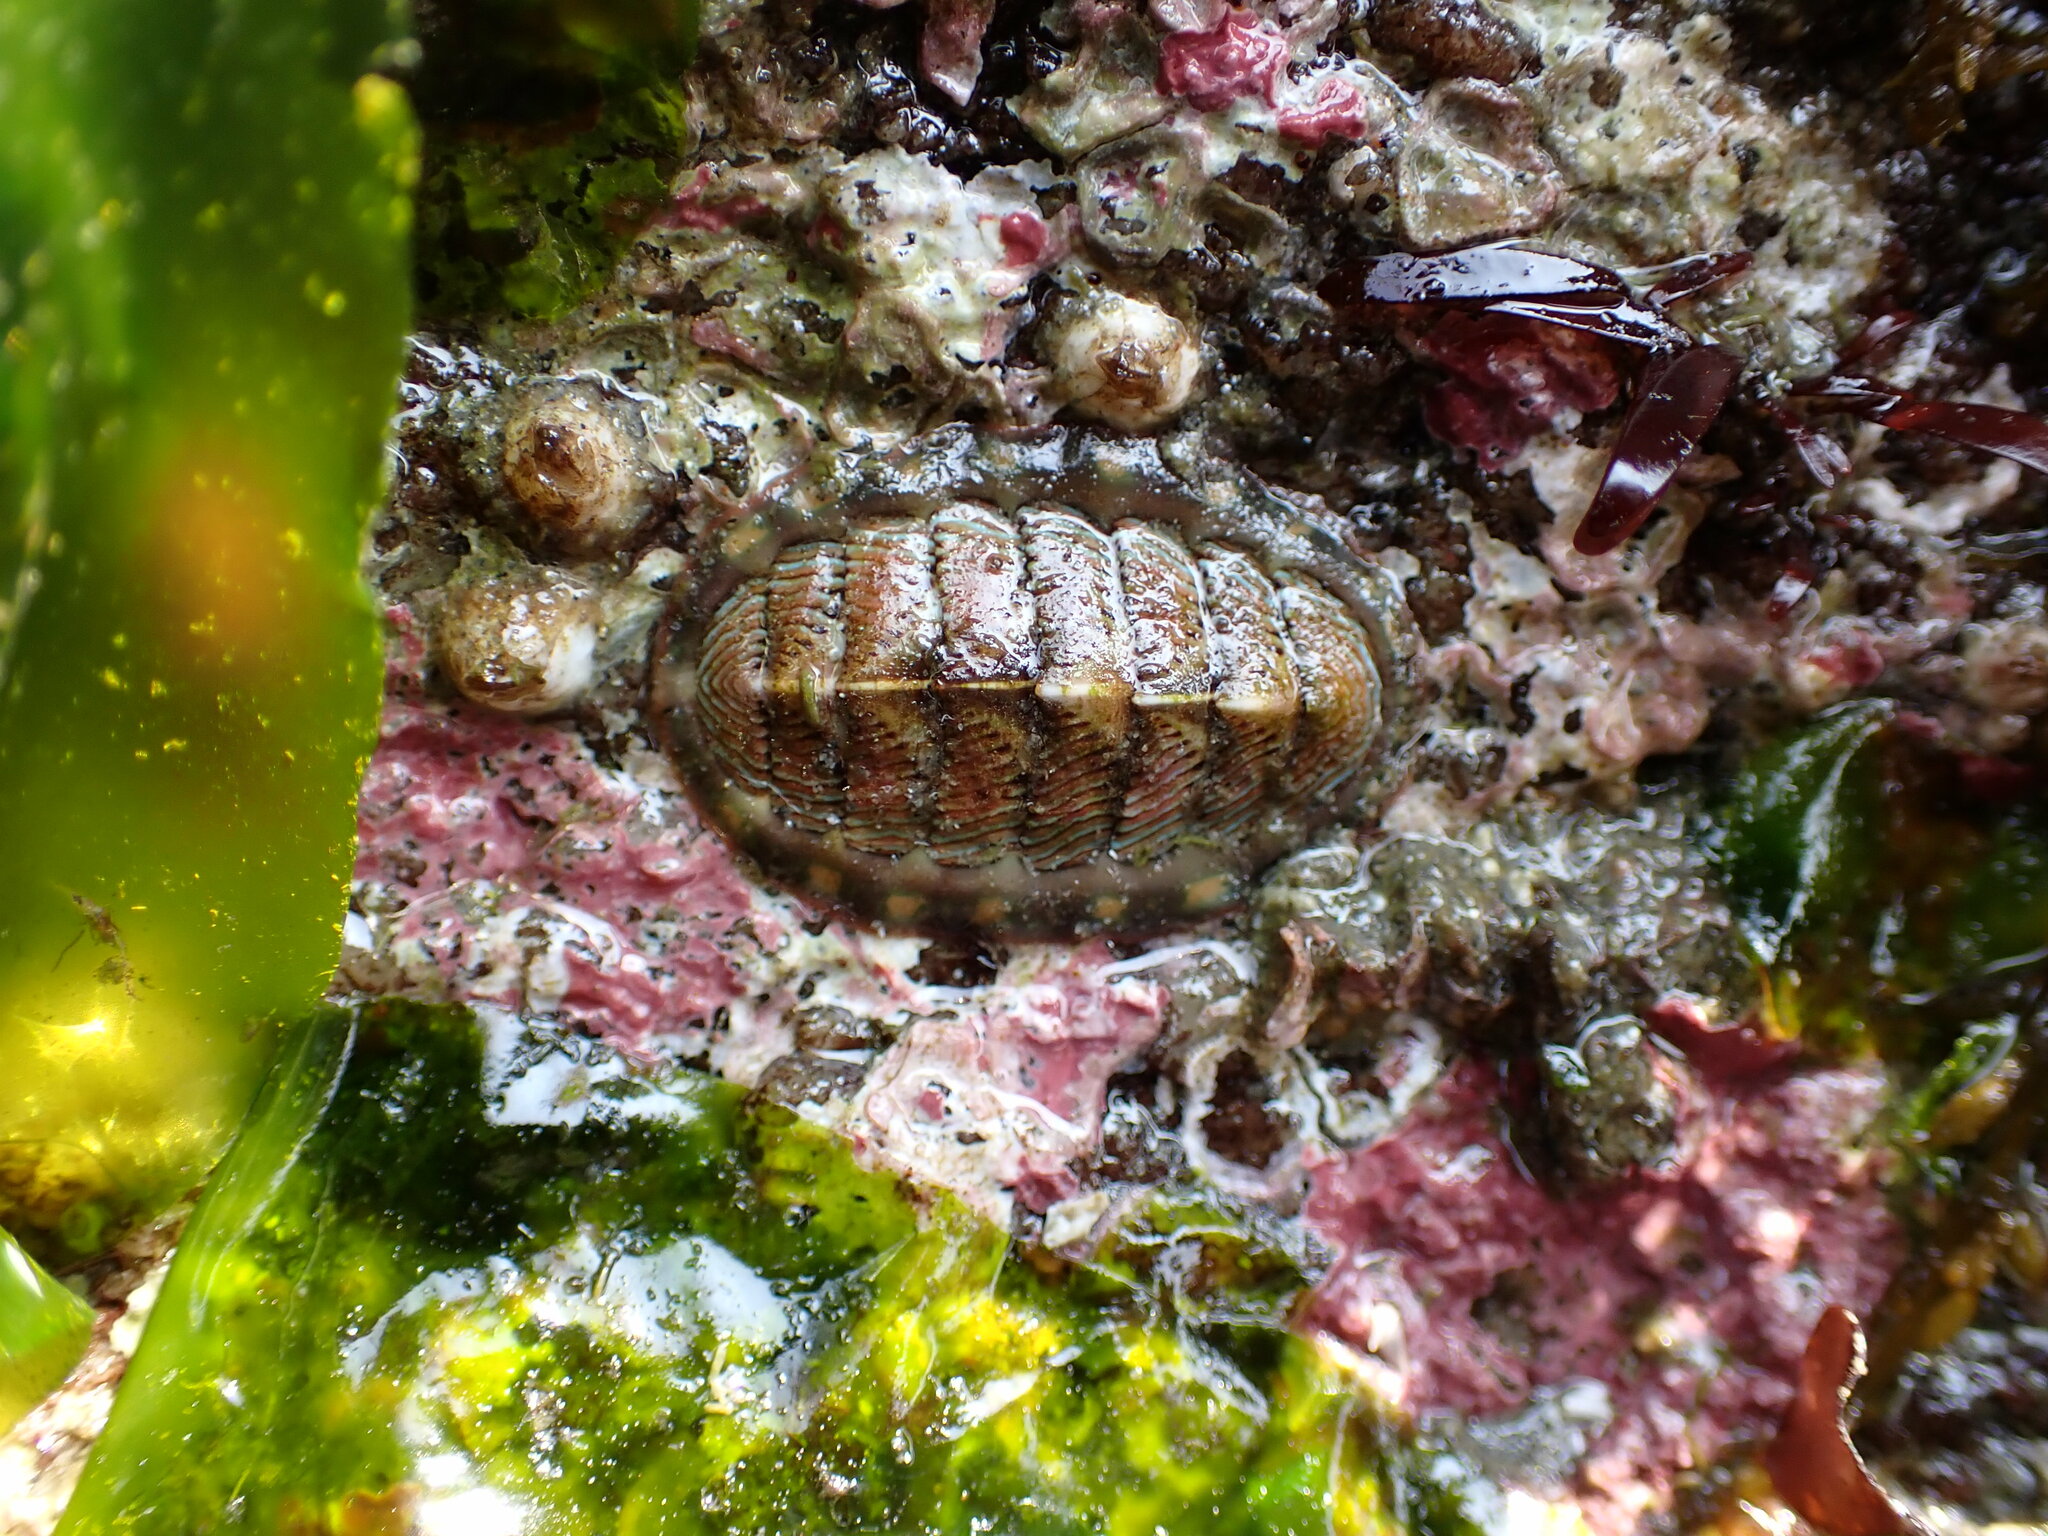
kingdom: Animalia
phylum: Mollusca
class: Polyplacophora
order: Chitonida
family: Tonicellidae
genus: Tonicella
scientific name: Tonicella lineata
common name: Lined chiton
